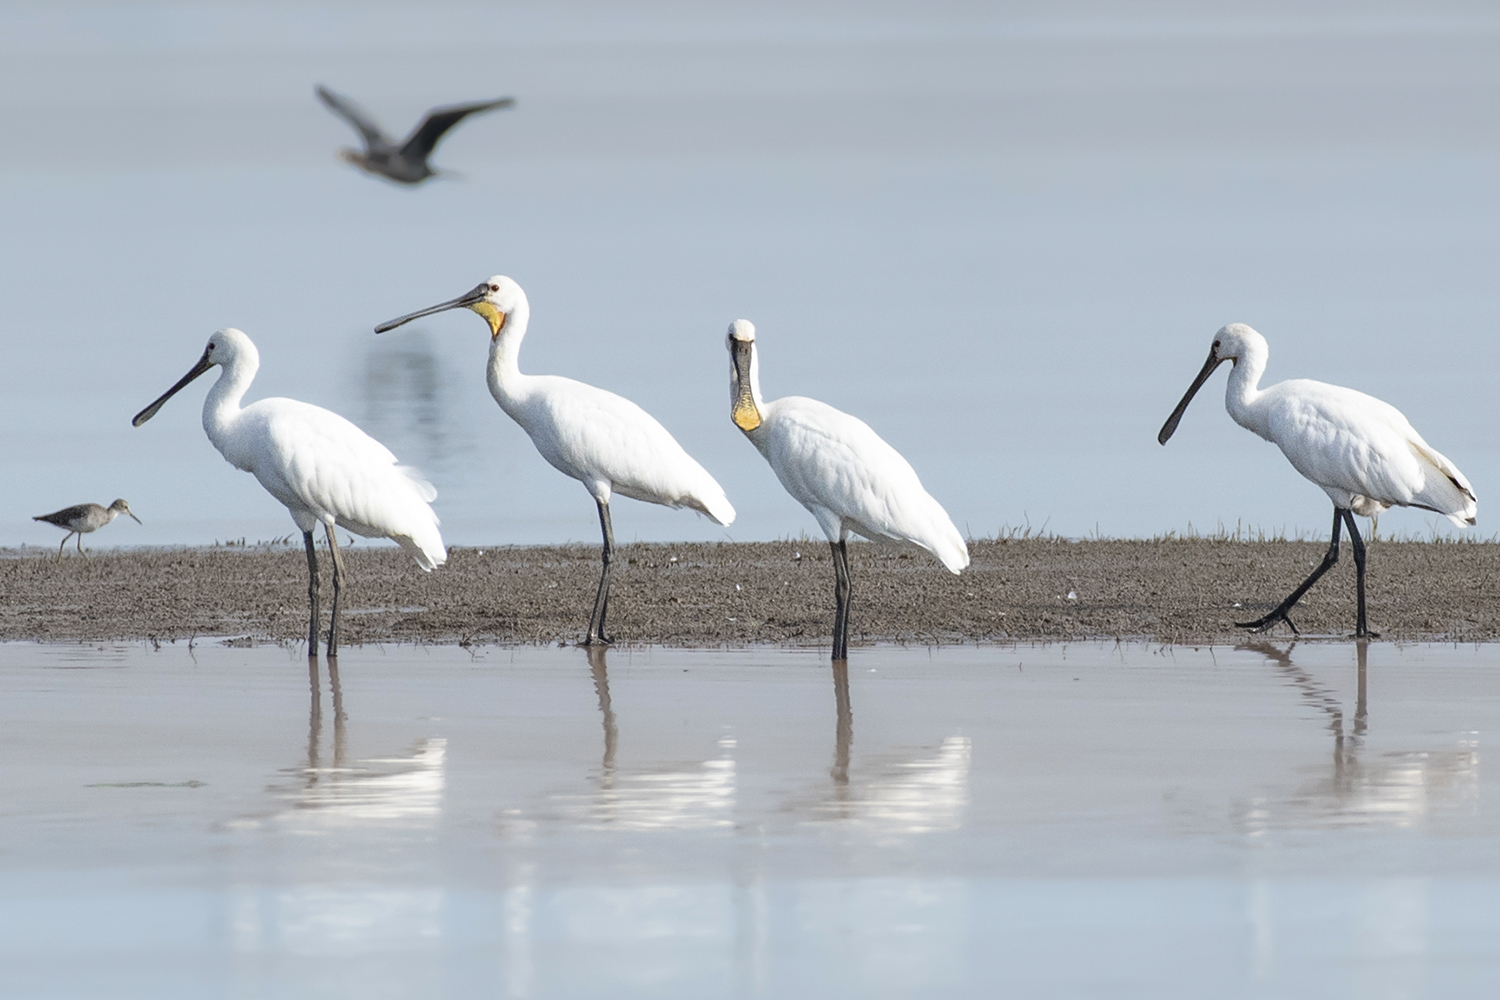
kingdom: Animalia
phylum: Chordata
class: Aves
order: Pelecaniformes
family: Threskiornithidae
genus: Platalea
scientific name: Platalea leucorodia
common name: Eurasian spoonbill
